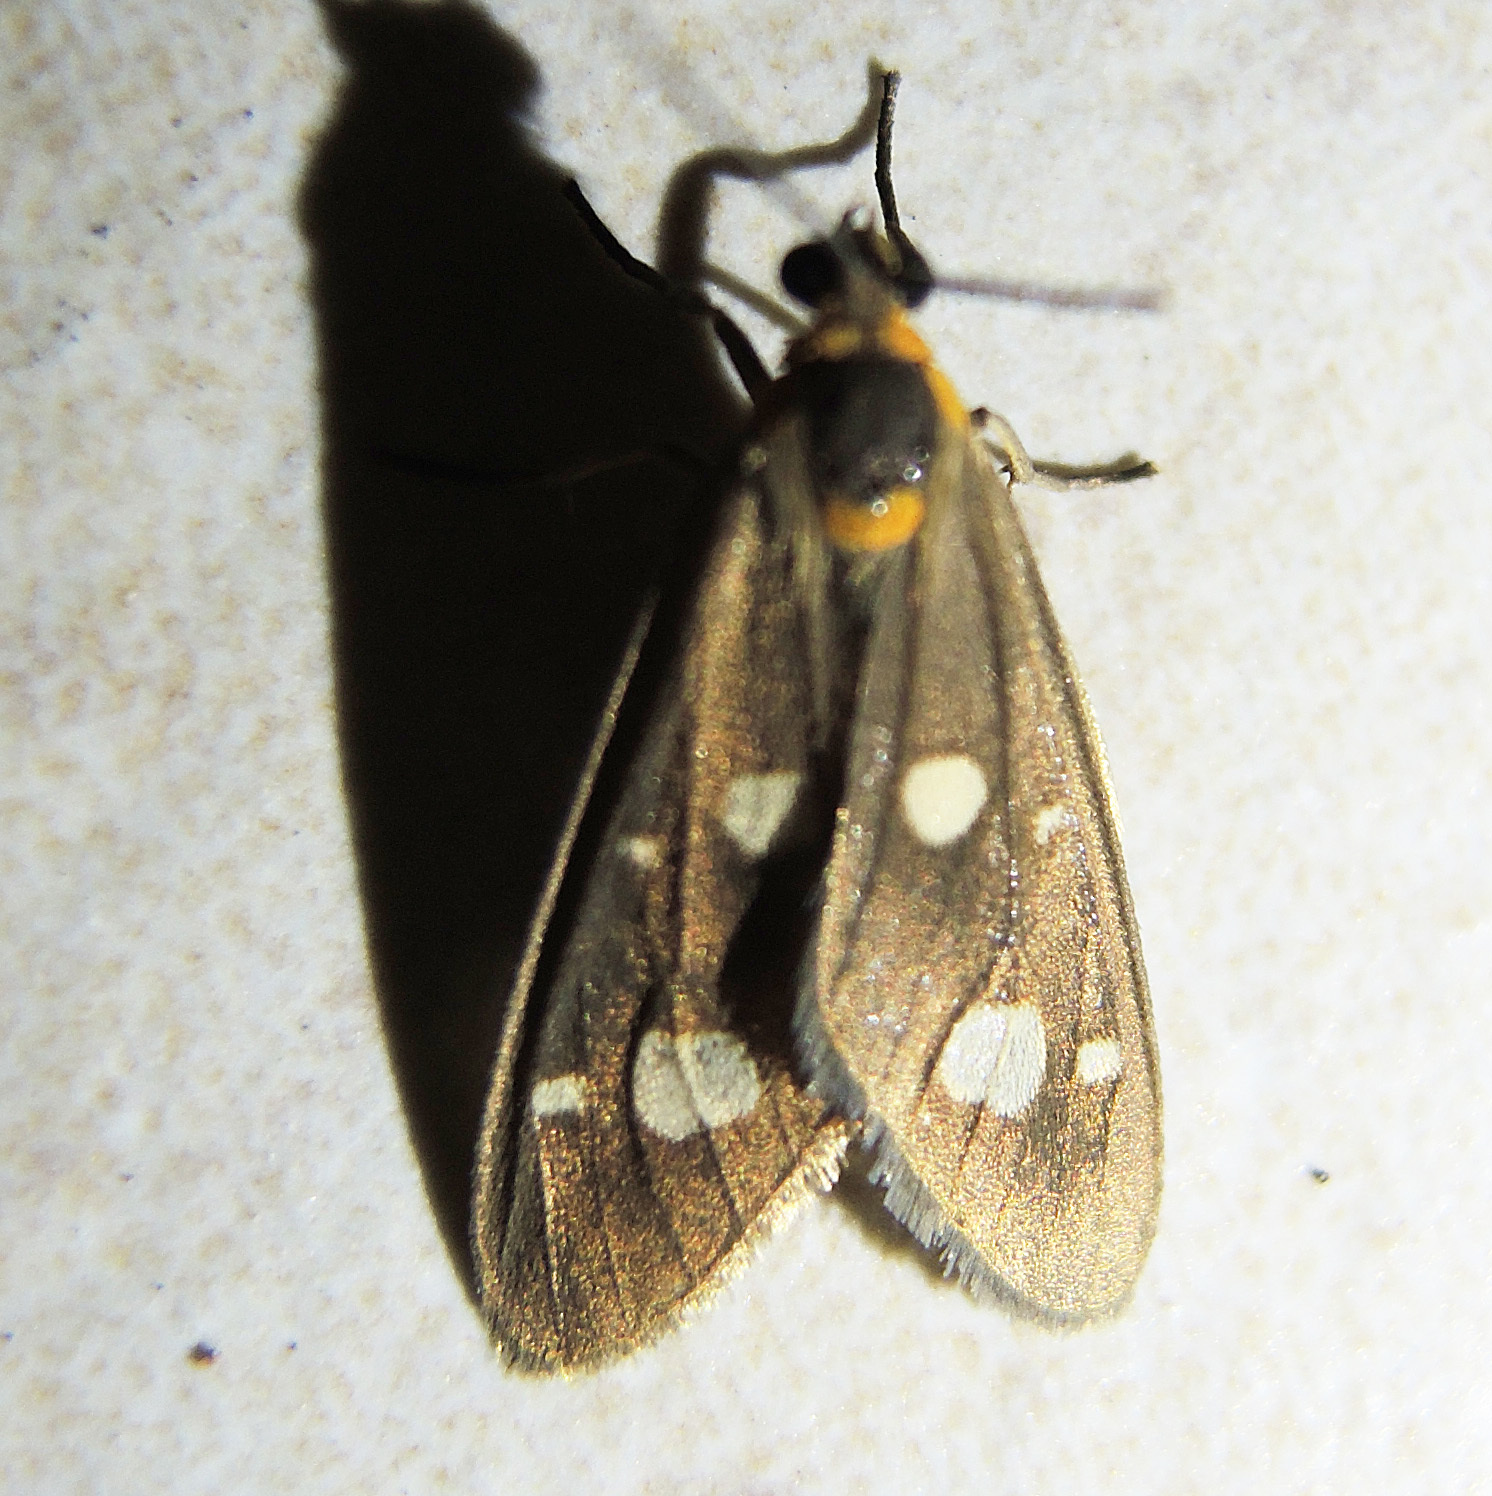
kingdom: Animalia
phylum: Arthropoda
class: Insecta
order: Lepidoptera
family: Erebidae
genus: Dysauxes
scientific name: Dysauxes punctata
